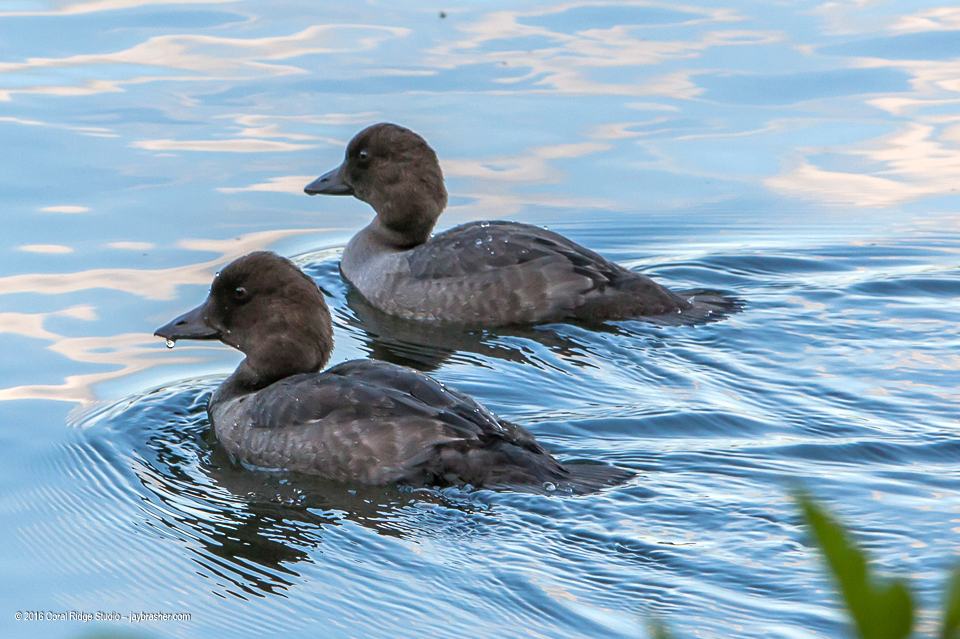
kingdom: Animalia
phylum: Chordata
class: Aves
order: Anseriformes
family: Anatidae
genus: Bucephala
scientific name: Bucephala clangula
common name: Common goldeneye
